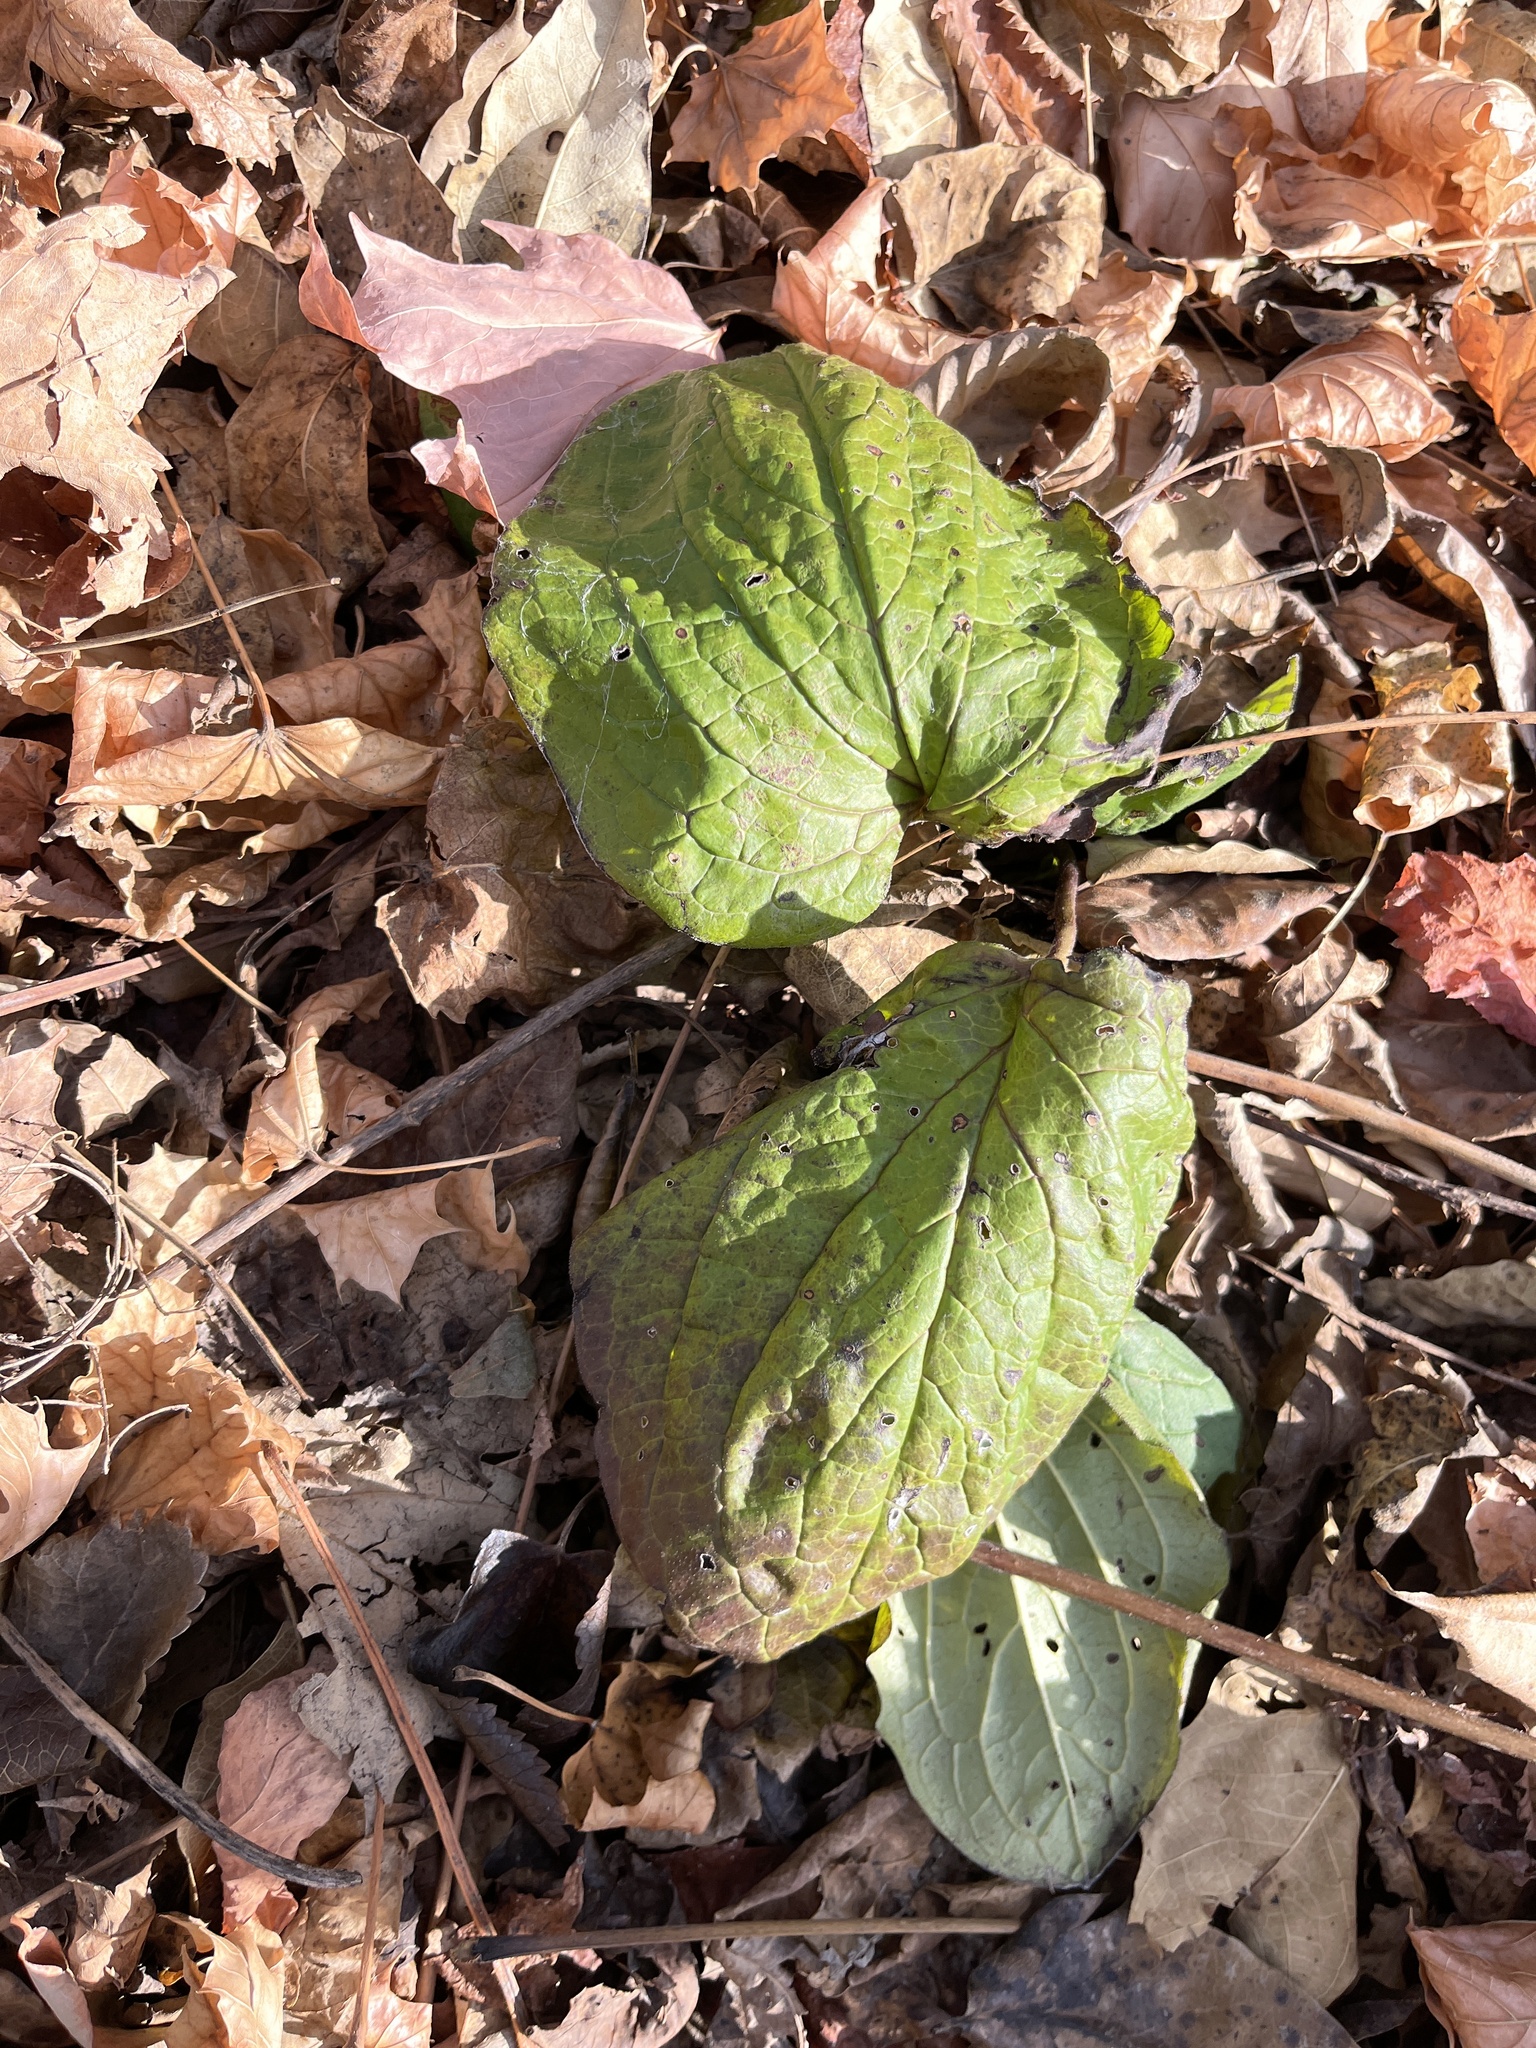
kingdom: Plantae
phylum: Tracheophyta
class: Magnoliopsida
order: Boraginales
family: Boraginaceae
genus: Hackelia
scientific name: Hackelia virginiana
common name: Beggar's-lice
